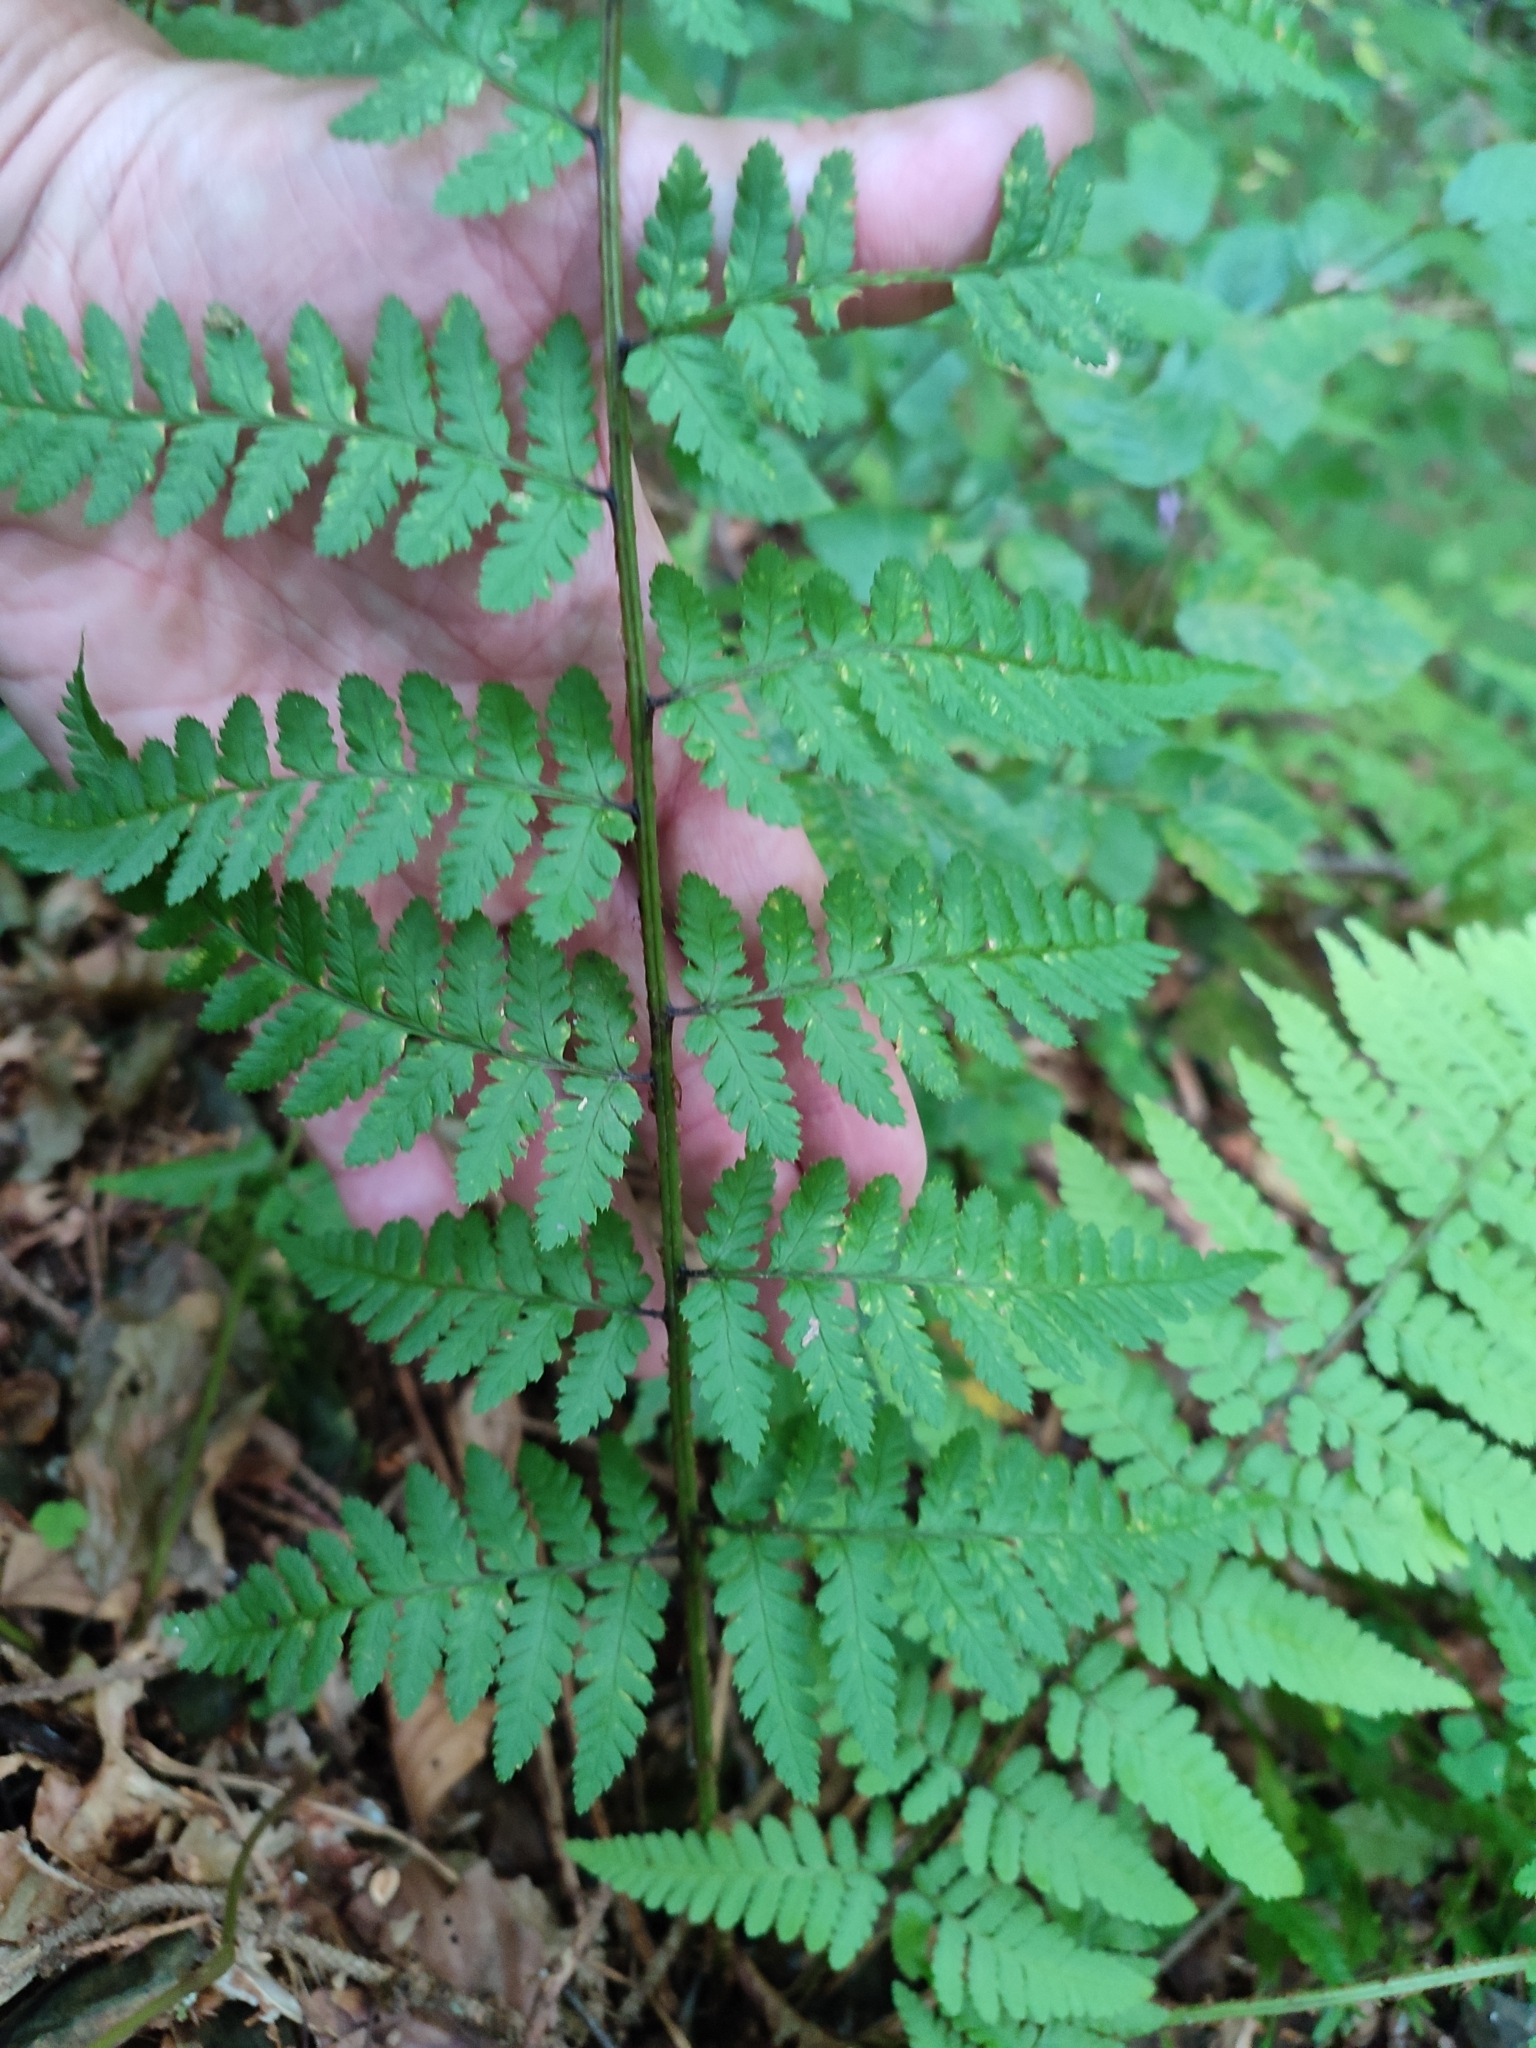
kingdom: Plantae
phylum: Tracheophyta
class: Polypodiopsida
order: Polypodiales
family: Dryopteridaceae
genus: Dryopteris
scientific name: Dryopteris remota
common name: Scaly buckler-fern
